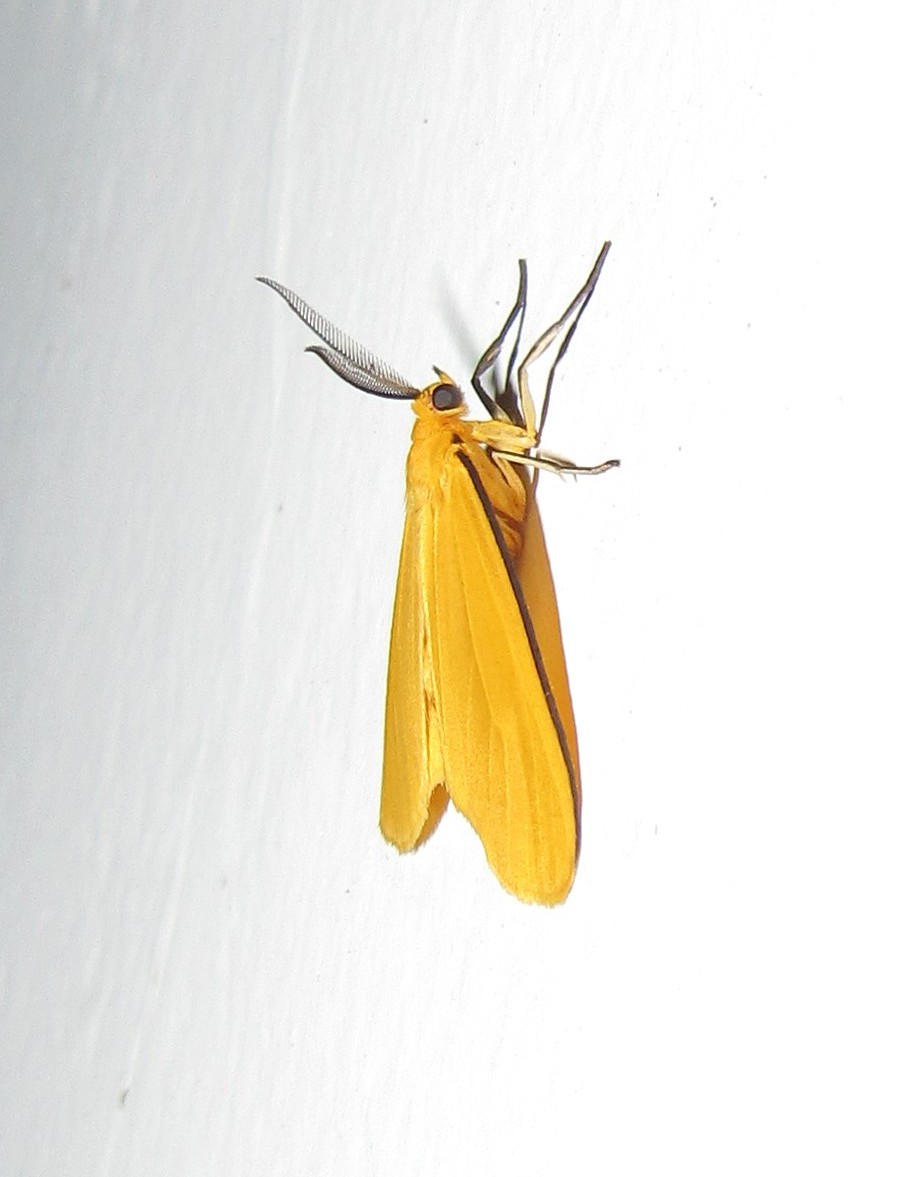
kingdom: Animalia
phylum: Arthropoda
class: Insecta
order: Lepidoptera
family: Erebidae
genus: Didaphne
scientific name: Didaphne
